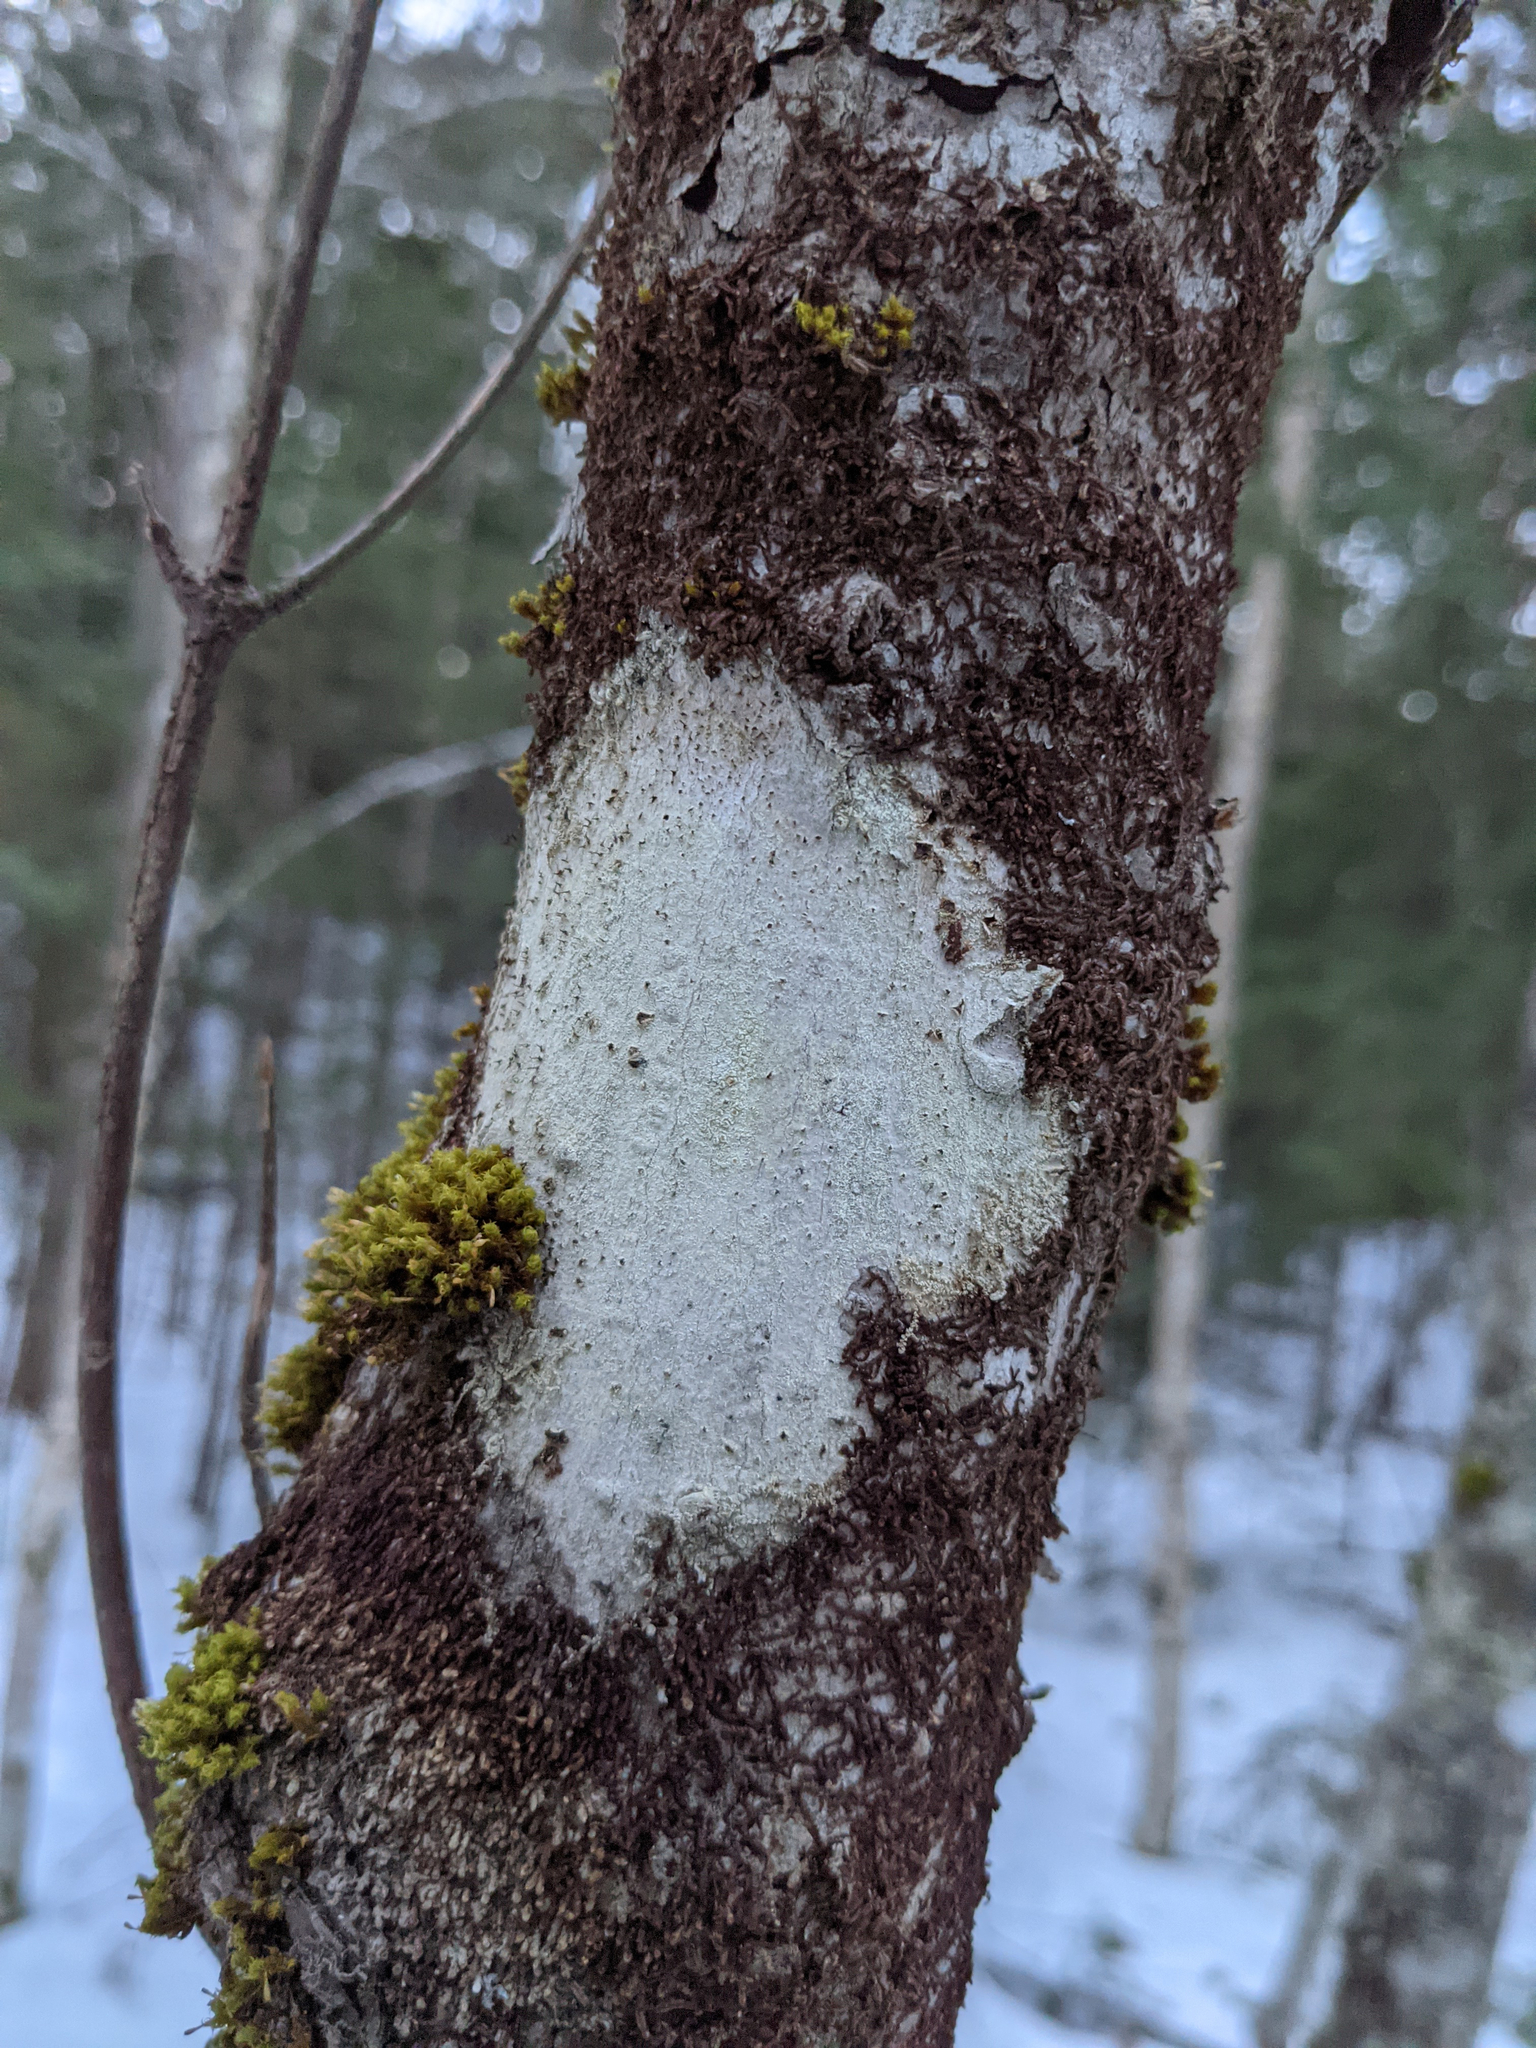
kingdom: Plantae
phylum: Bryophyta
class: Bryopsida
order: Orthotrichales
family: Orthotrichaceae
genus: Ulota
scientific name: Ulota crispa
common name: Crisped pincushion moss
